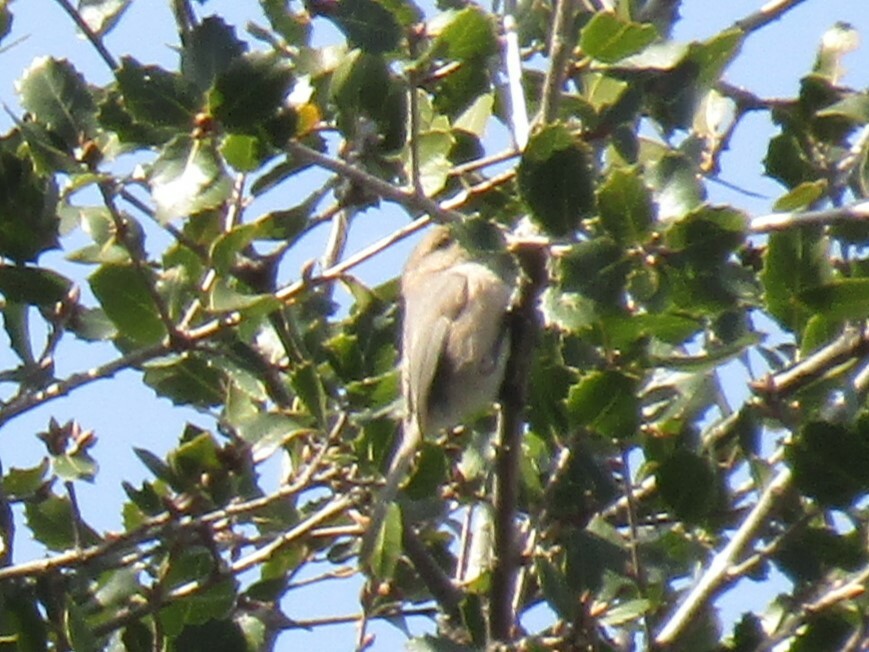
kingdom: Animalia
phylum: Chordata
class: Aves
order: Passeriformes
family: Aegithalidae
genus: Psaltriparus
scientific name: Psaltriparus minimus
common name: American bushtit
